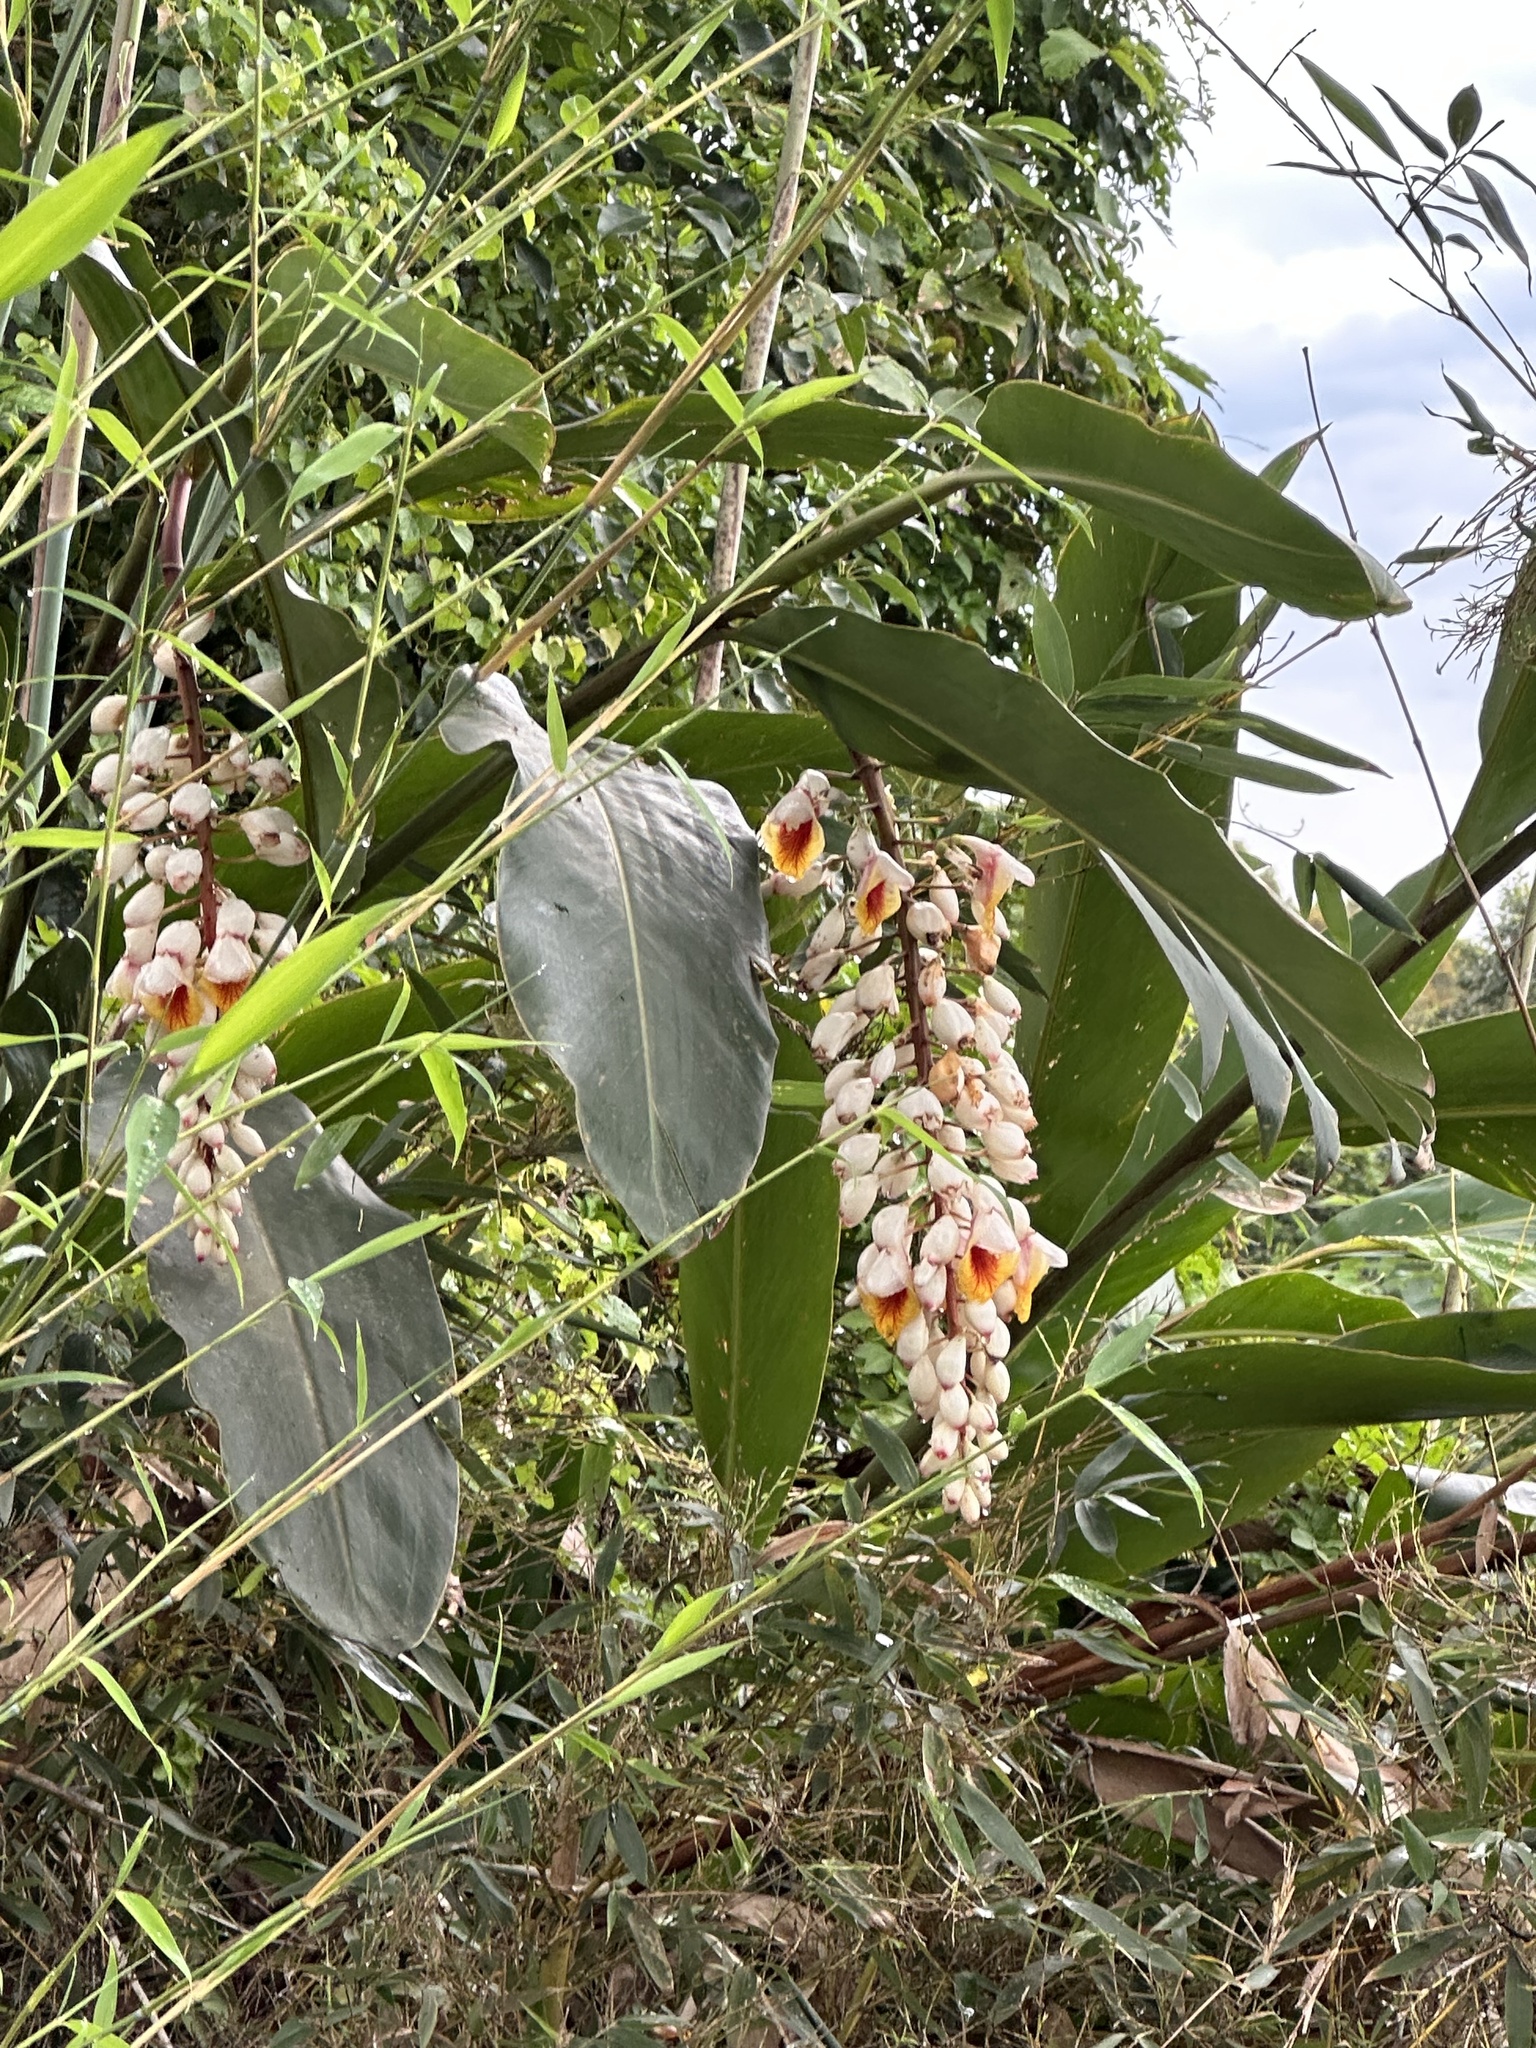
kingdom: Plantae
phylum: Tracheophyta
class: Liliopsida
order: Zingiberales
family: Zingiberaceae
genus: Alpinia
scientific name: Alpinia zerumbet
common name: Shellplant
